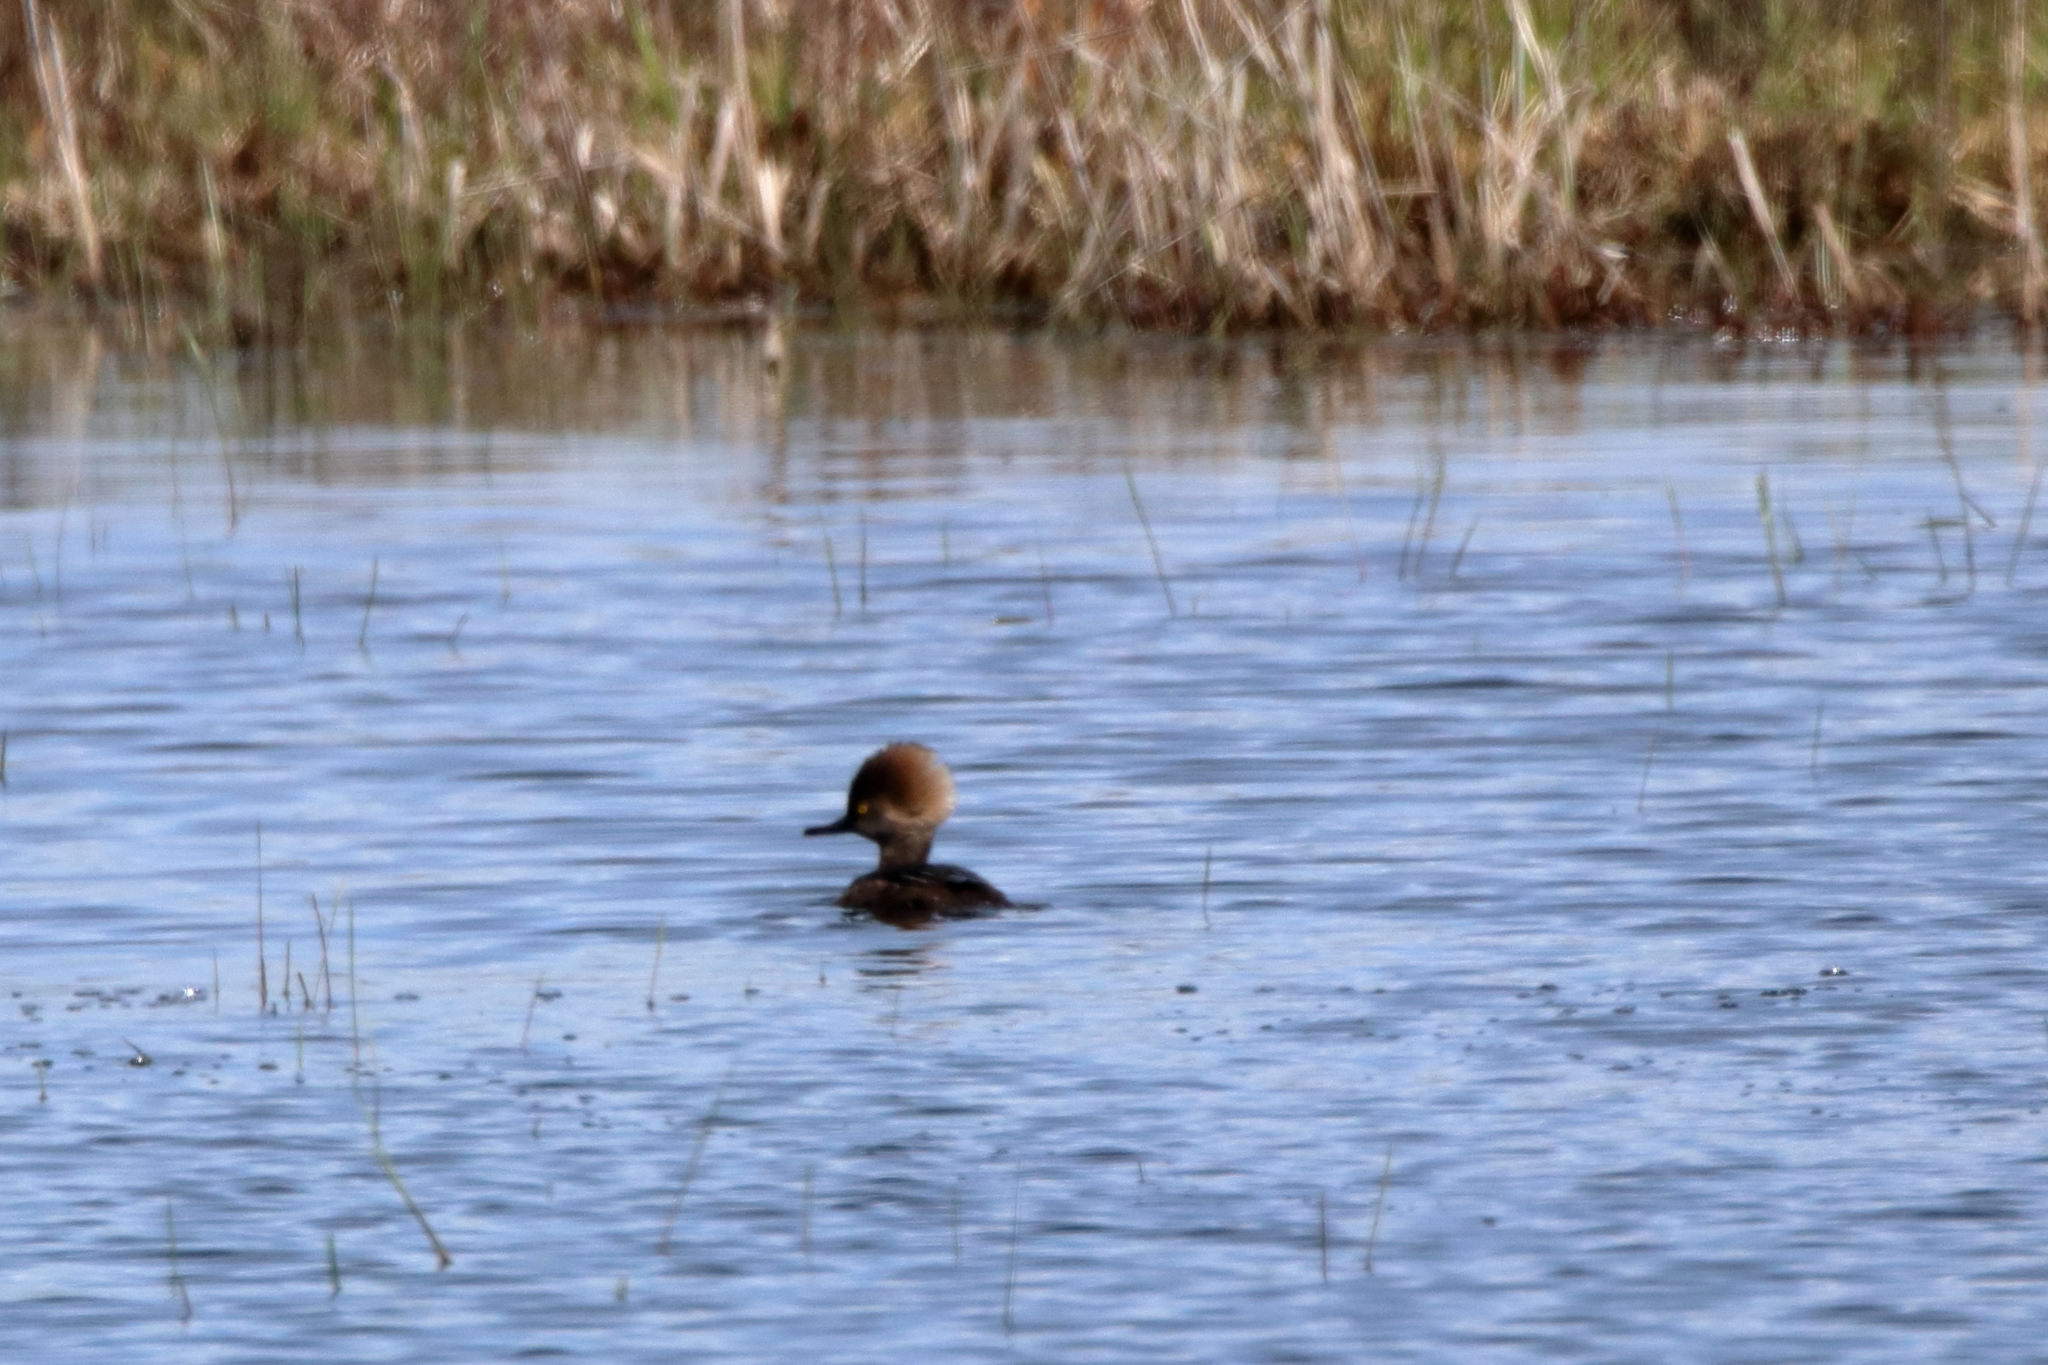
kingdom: Animalia
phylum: Chordata
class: Aves
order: Anseriformes
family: Anatidae
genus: Lophodytes
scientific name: Lophodytes cucullatus
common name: Hooded merganser
